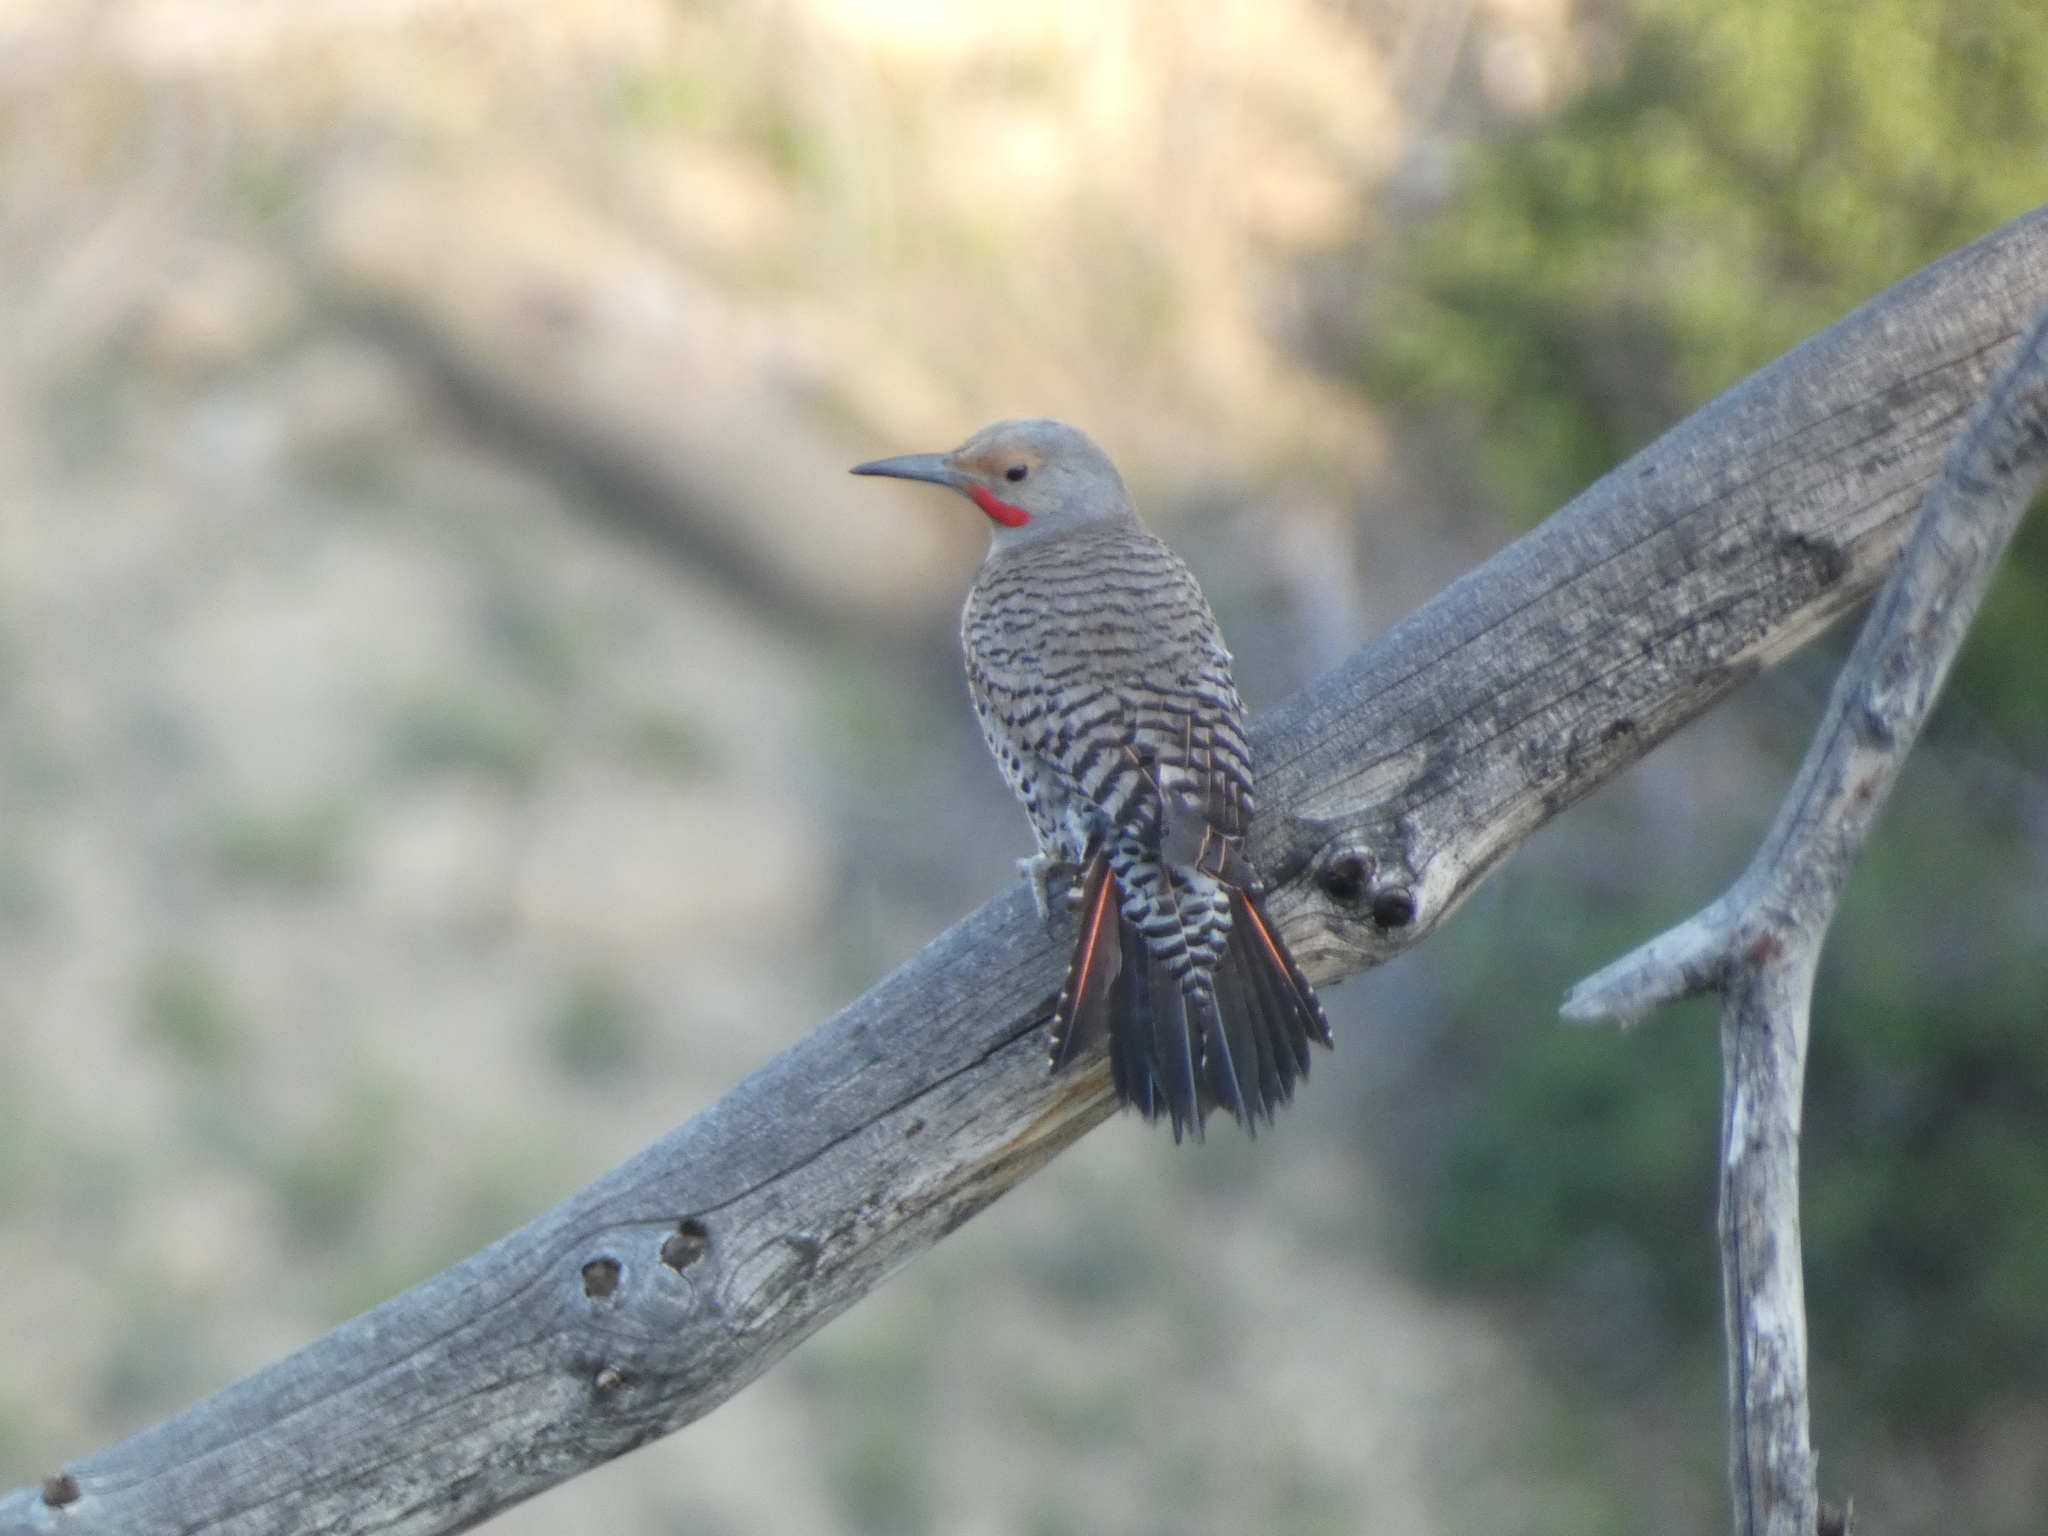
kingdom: Animalia
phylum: Chordata
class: Aves
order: Piciformes
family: Picidae
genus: Colaptes
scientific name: Colaptes auratus
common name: Northern flicker
